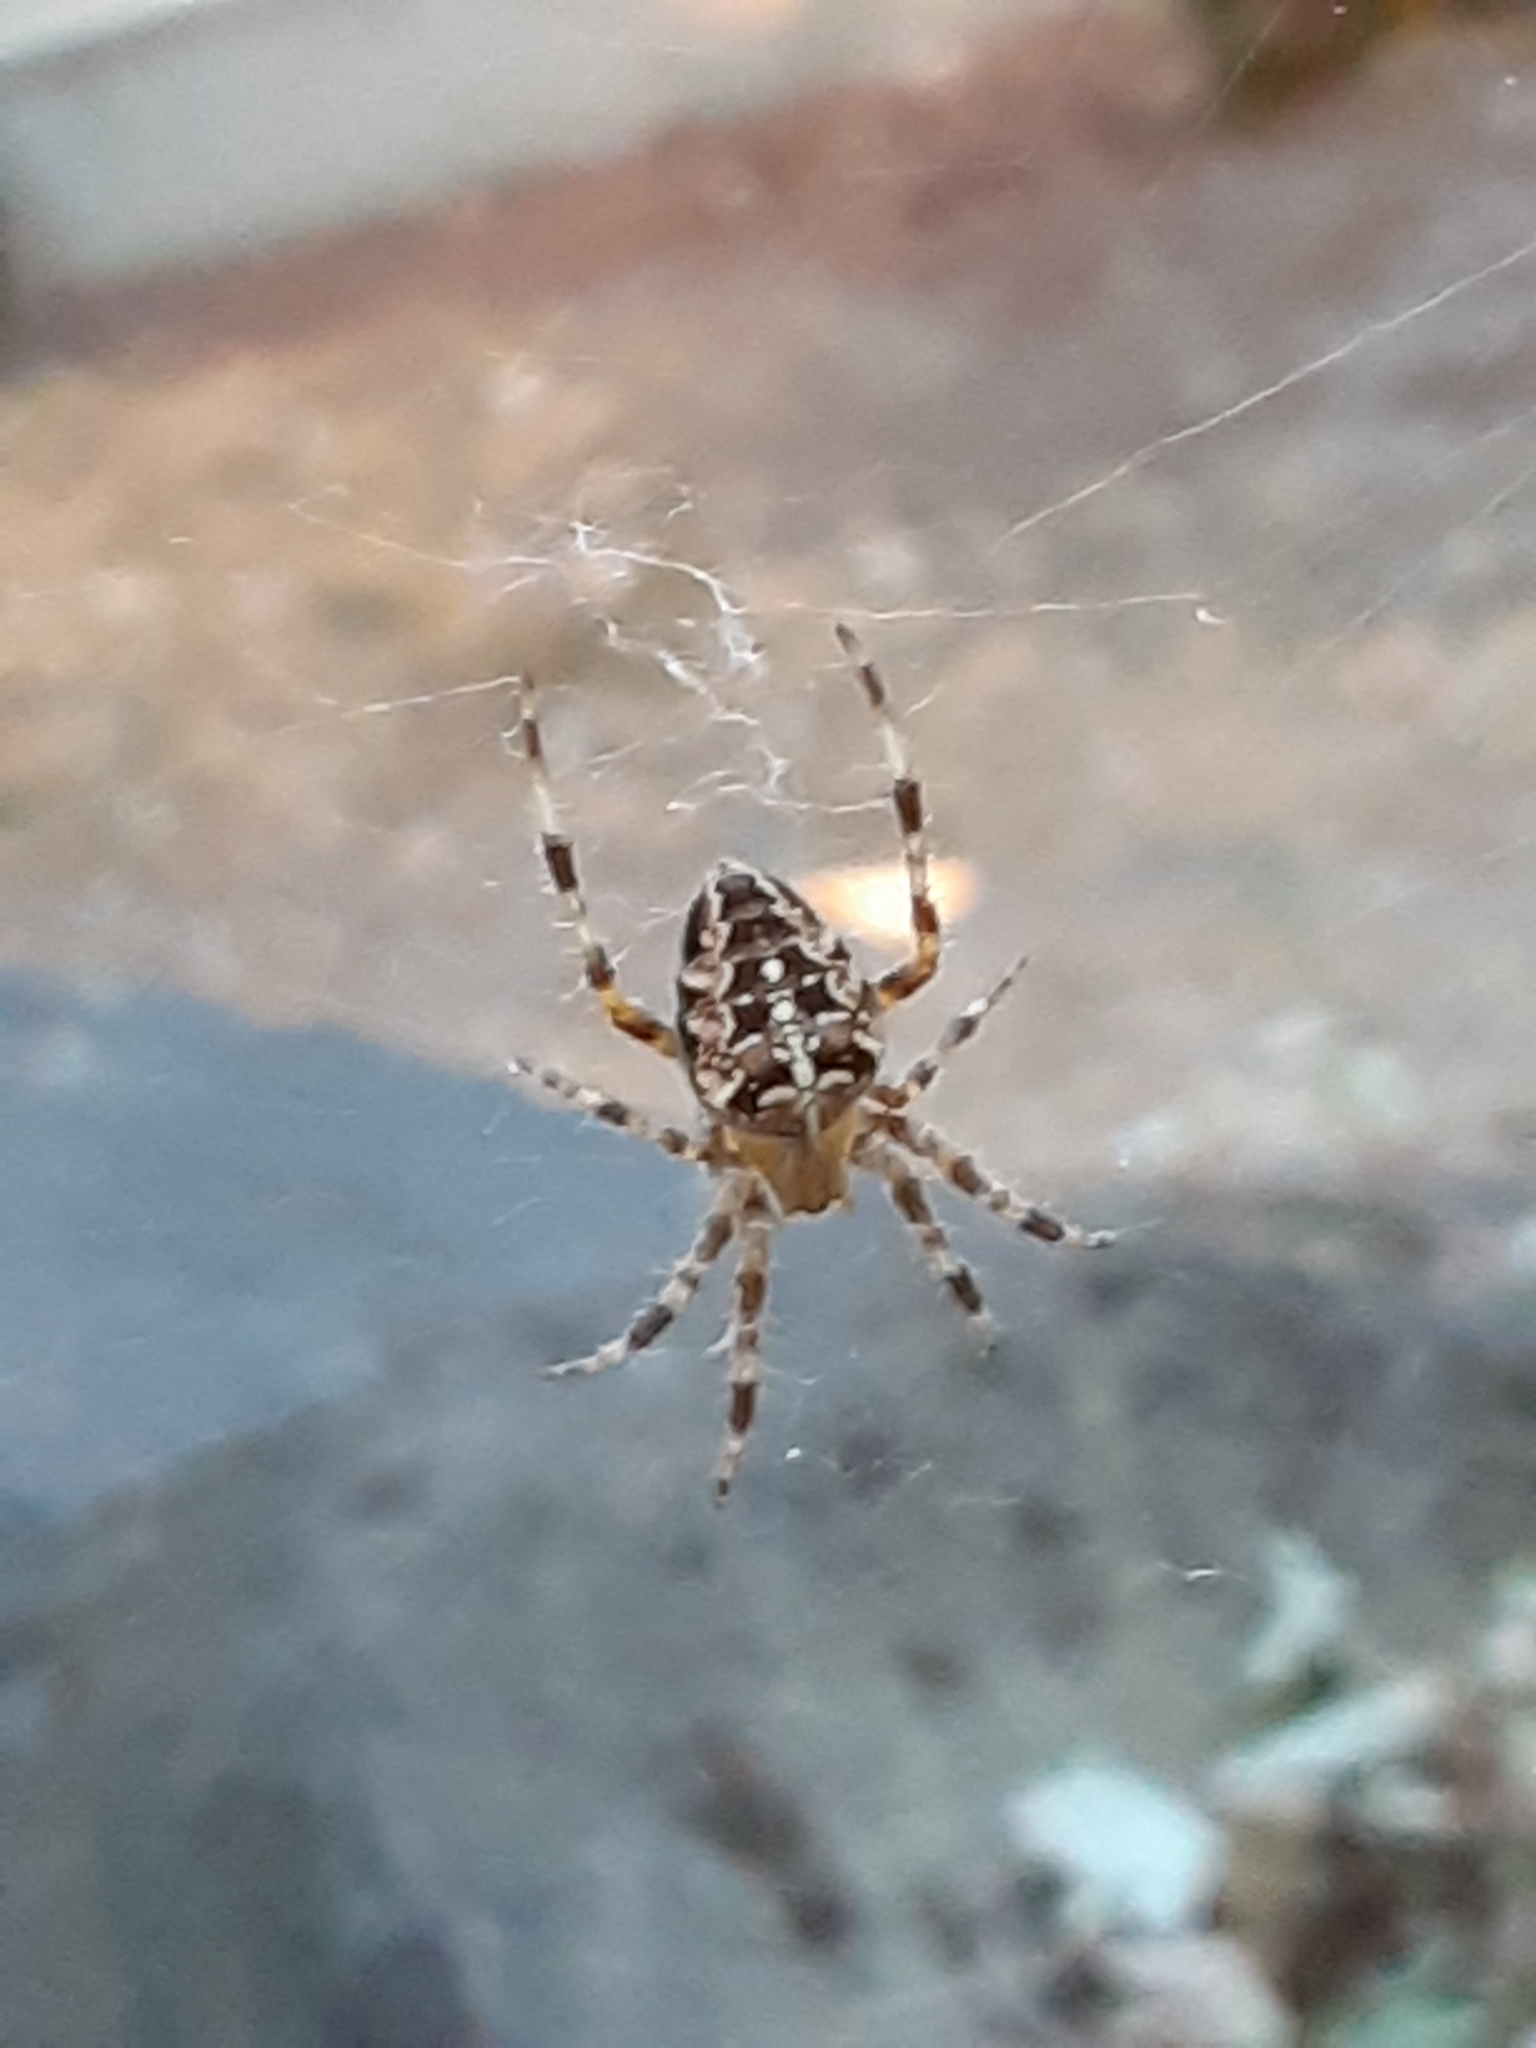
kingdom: Animalia
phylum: Arthropoda
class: Arachnida
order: Araneae
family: Araneidae
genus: Araneus
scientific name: Araneus diadematus
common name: Cross orbweaver
